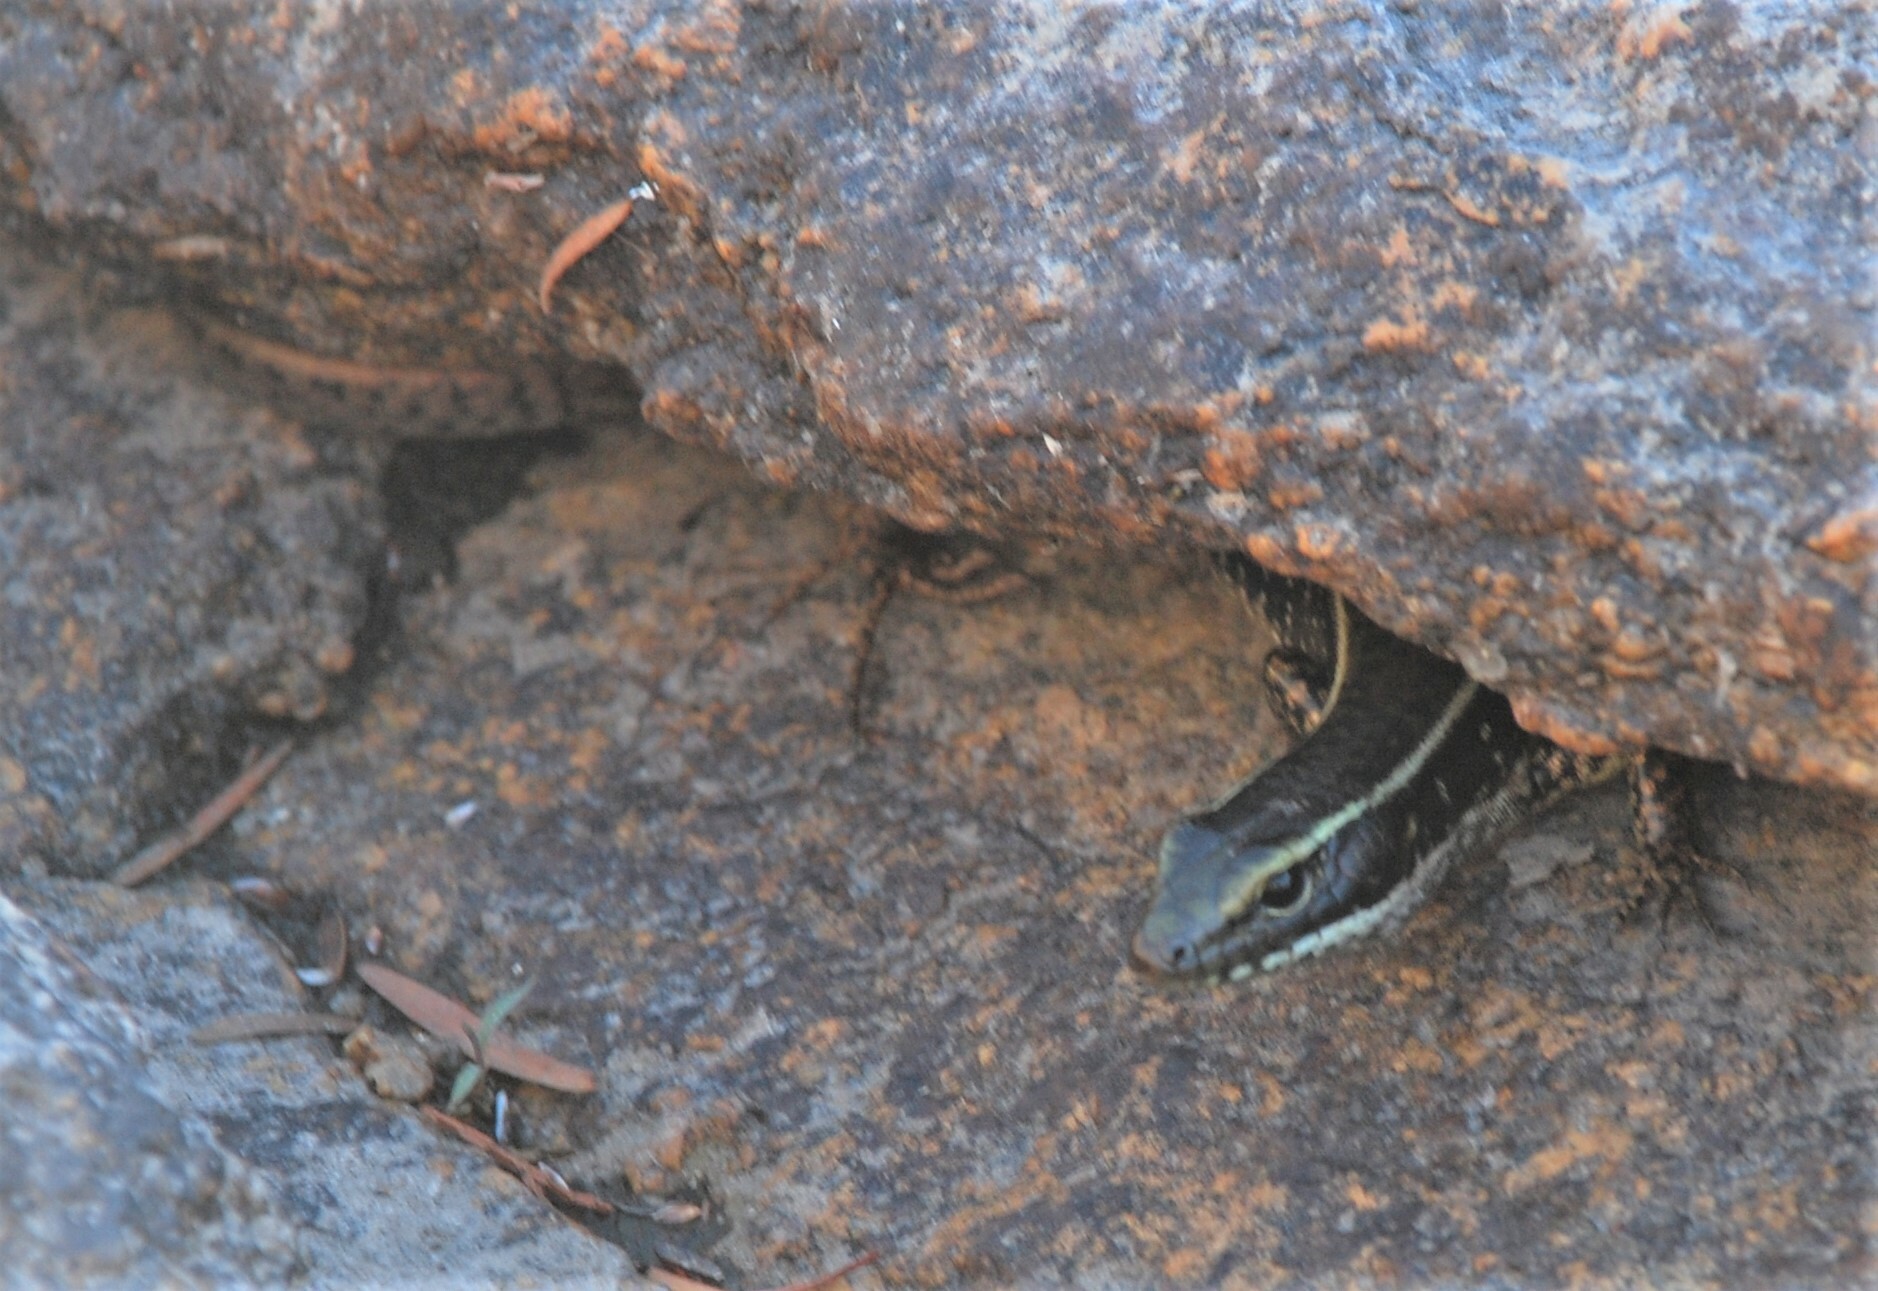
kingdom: Animalia
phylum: Chordata
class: Squamata
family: Scincidae
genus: Eulamprus
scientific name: Eulamprus quoyii
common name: Eastern water skink
